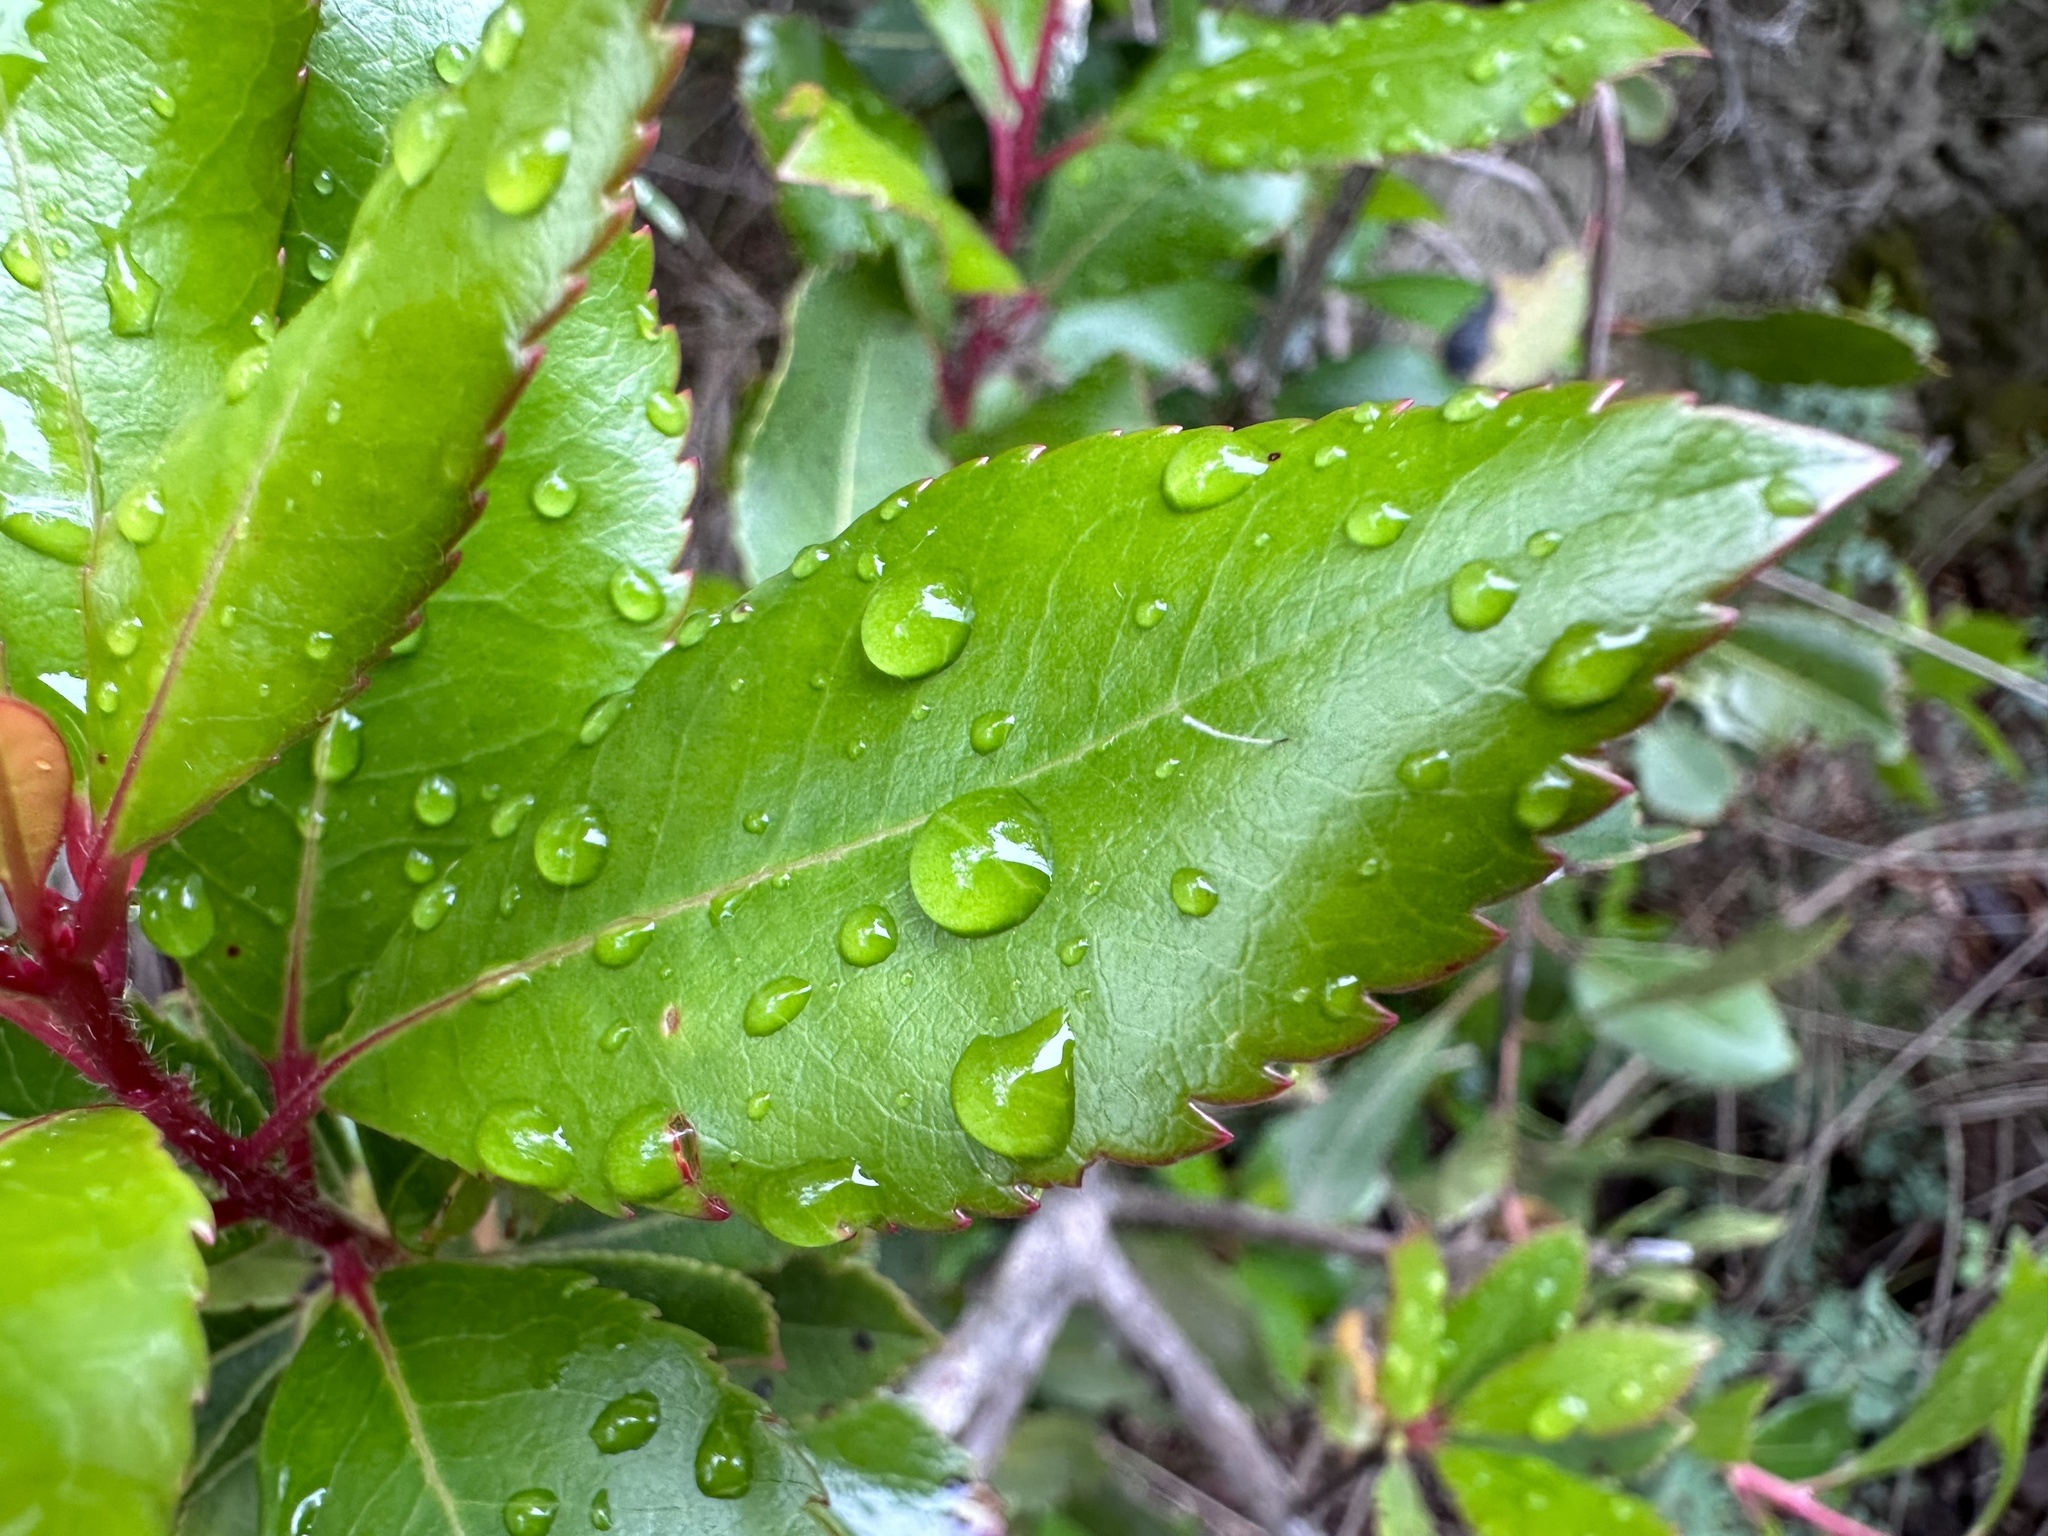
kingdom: Plantae
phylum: Tracheophyta
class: Magnoliopsida
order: Ericales
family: Ericaceae
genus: Arbutus
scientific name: Arbutus unedo
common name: Strawberry-tree
